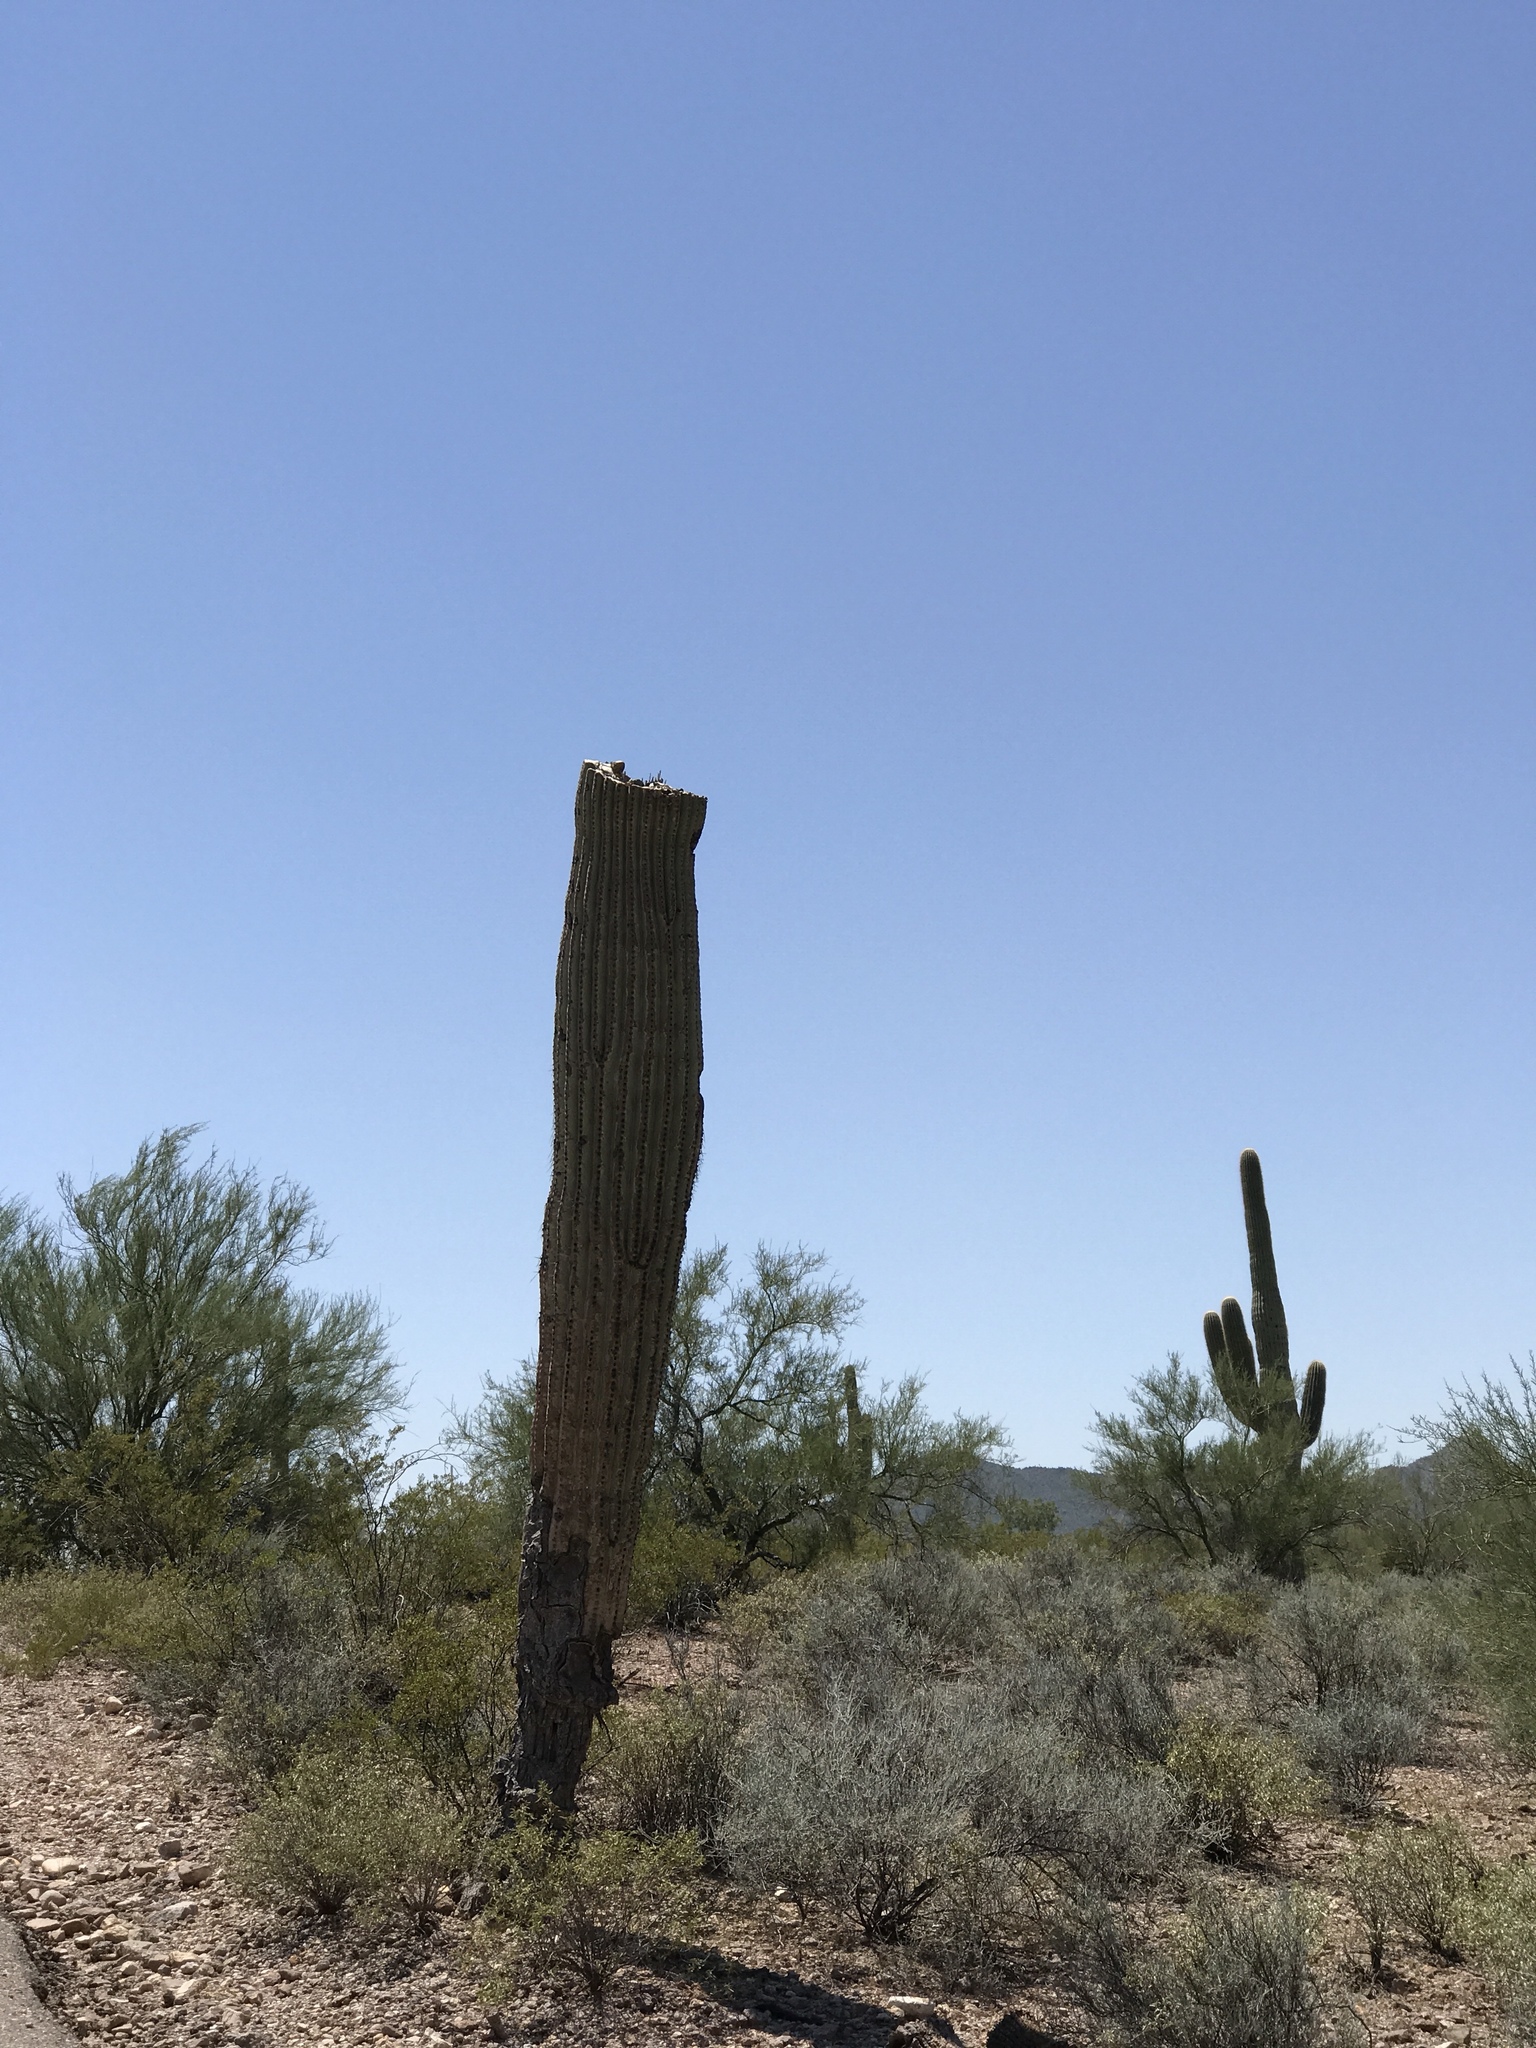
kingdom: Plantae
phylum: Tracheophyta
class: Magnoliopsida
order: Caryophyllales
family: Cactaceae
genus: Carnegiea
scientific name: Carnegiea gigantea
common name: Saguaro
